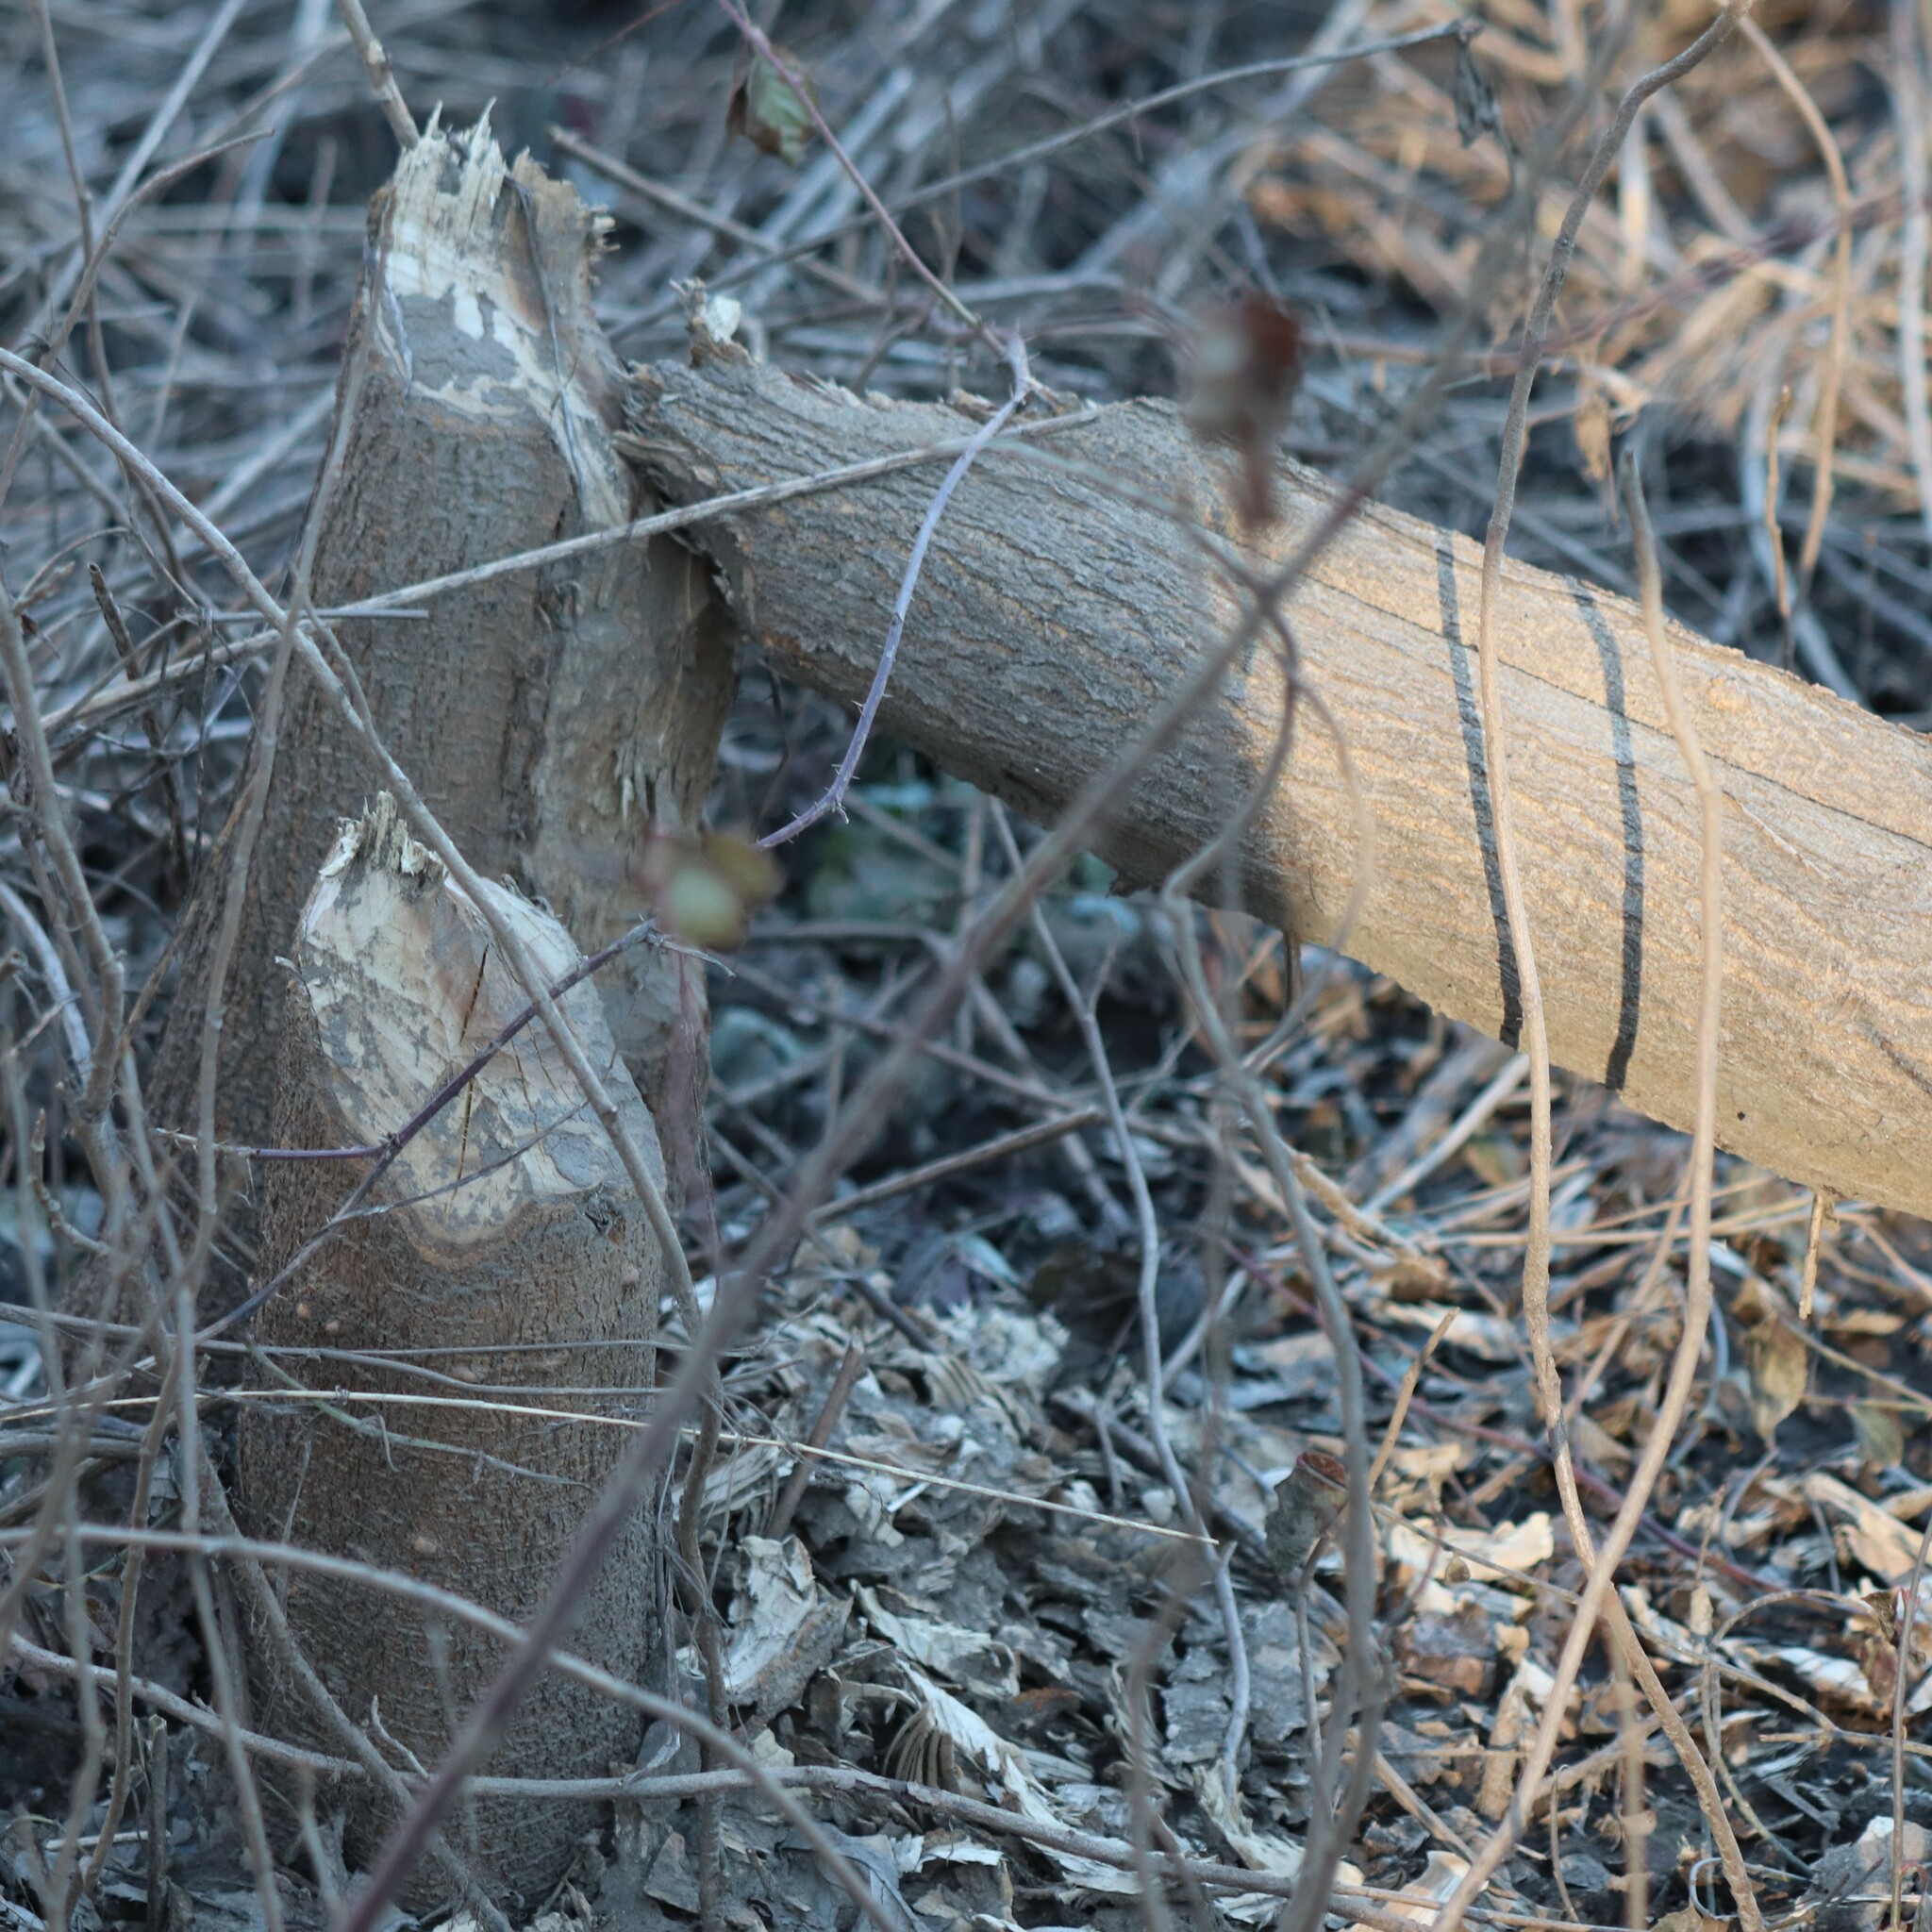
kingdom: Animalia
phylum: Chordata
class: Mammalia
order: Rodentia
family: Castoridae
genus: Castor
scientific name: Castor canadensis
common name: American beaver
